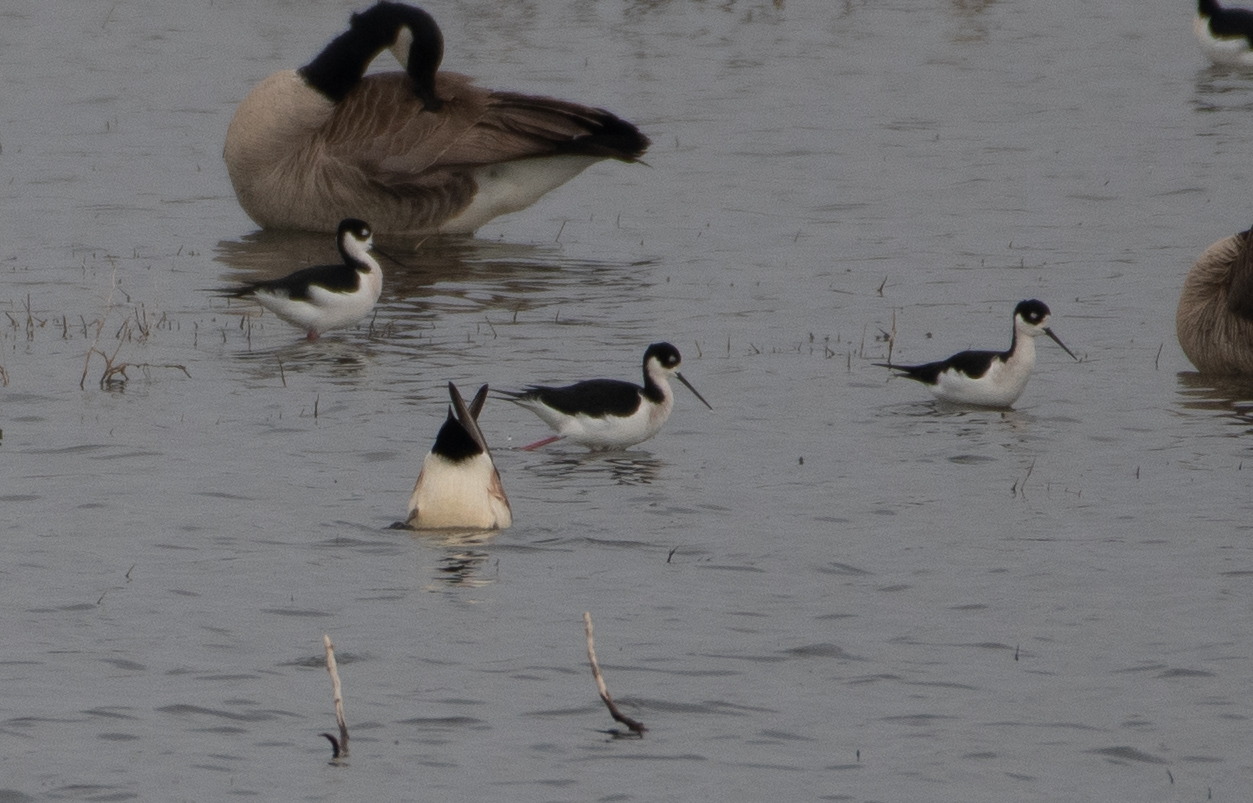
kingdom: Animalia
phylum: Chordata
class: Aves
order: Charadriiformes
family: Recurvirostridae
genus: Himantopus
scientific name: Himantopus mexicanus
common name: Black-necked stilt
